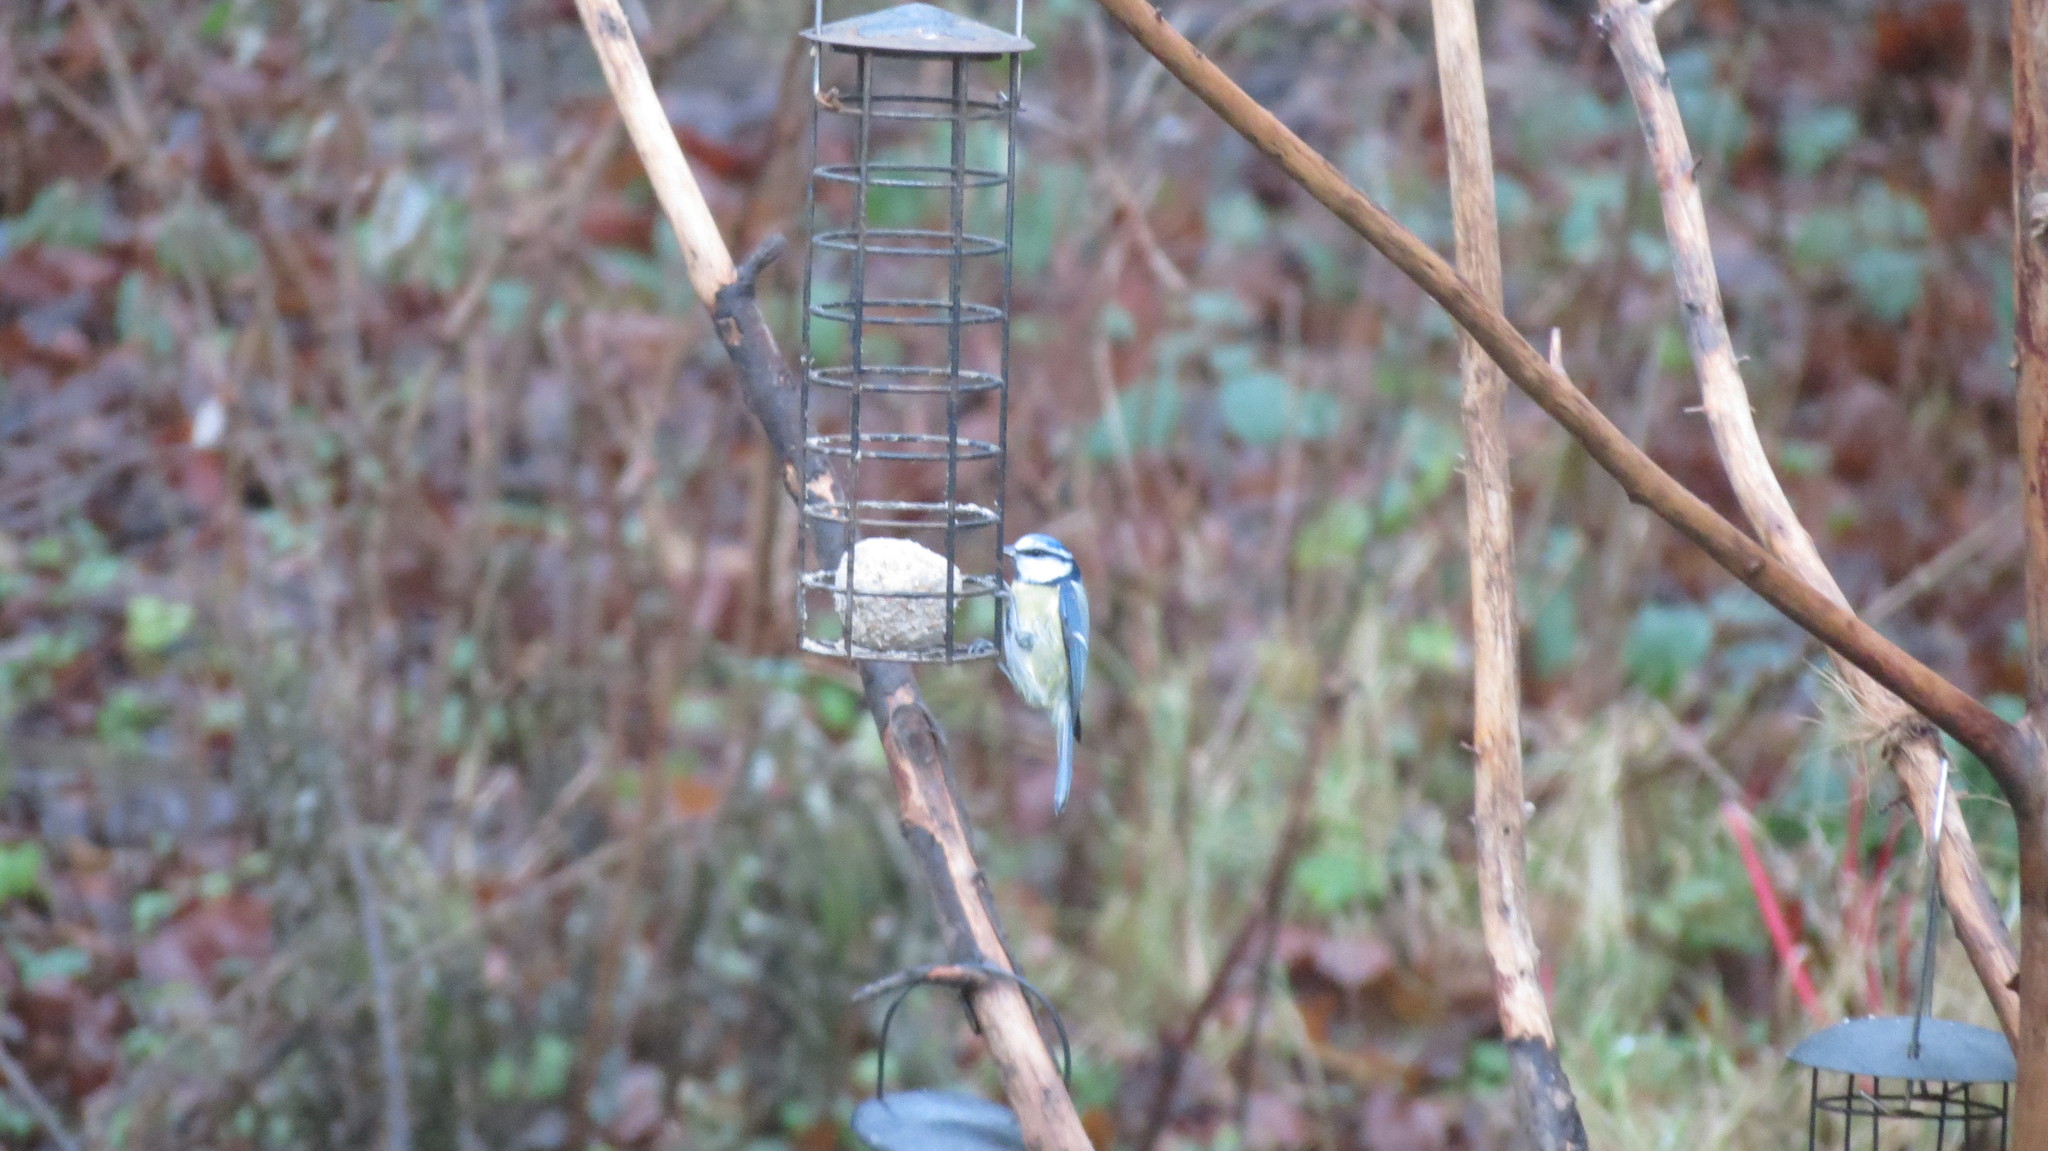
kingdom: Animalia
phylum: Chordata
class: Aves
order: Passeriformes
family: Paridae
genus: Cyanistes
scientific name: Cyanistes caeruleus
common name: Eurasian blue tit
